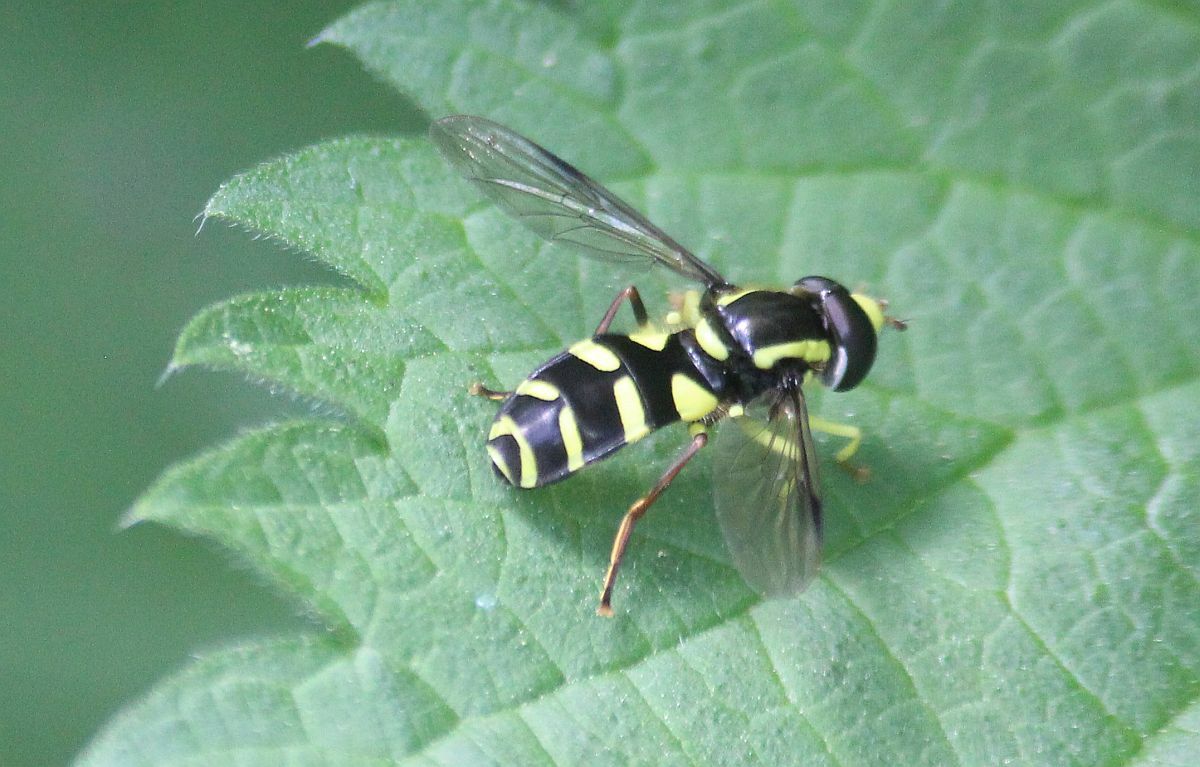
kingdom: Animalia
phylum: Arthropoda
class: Insecta
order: Diptera
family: Syrphidae
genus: Philhelius
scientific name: Philhelius pedissequum
